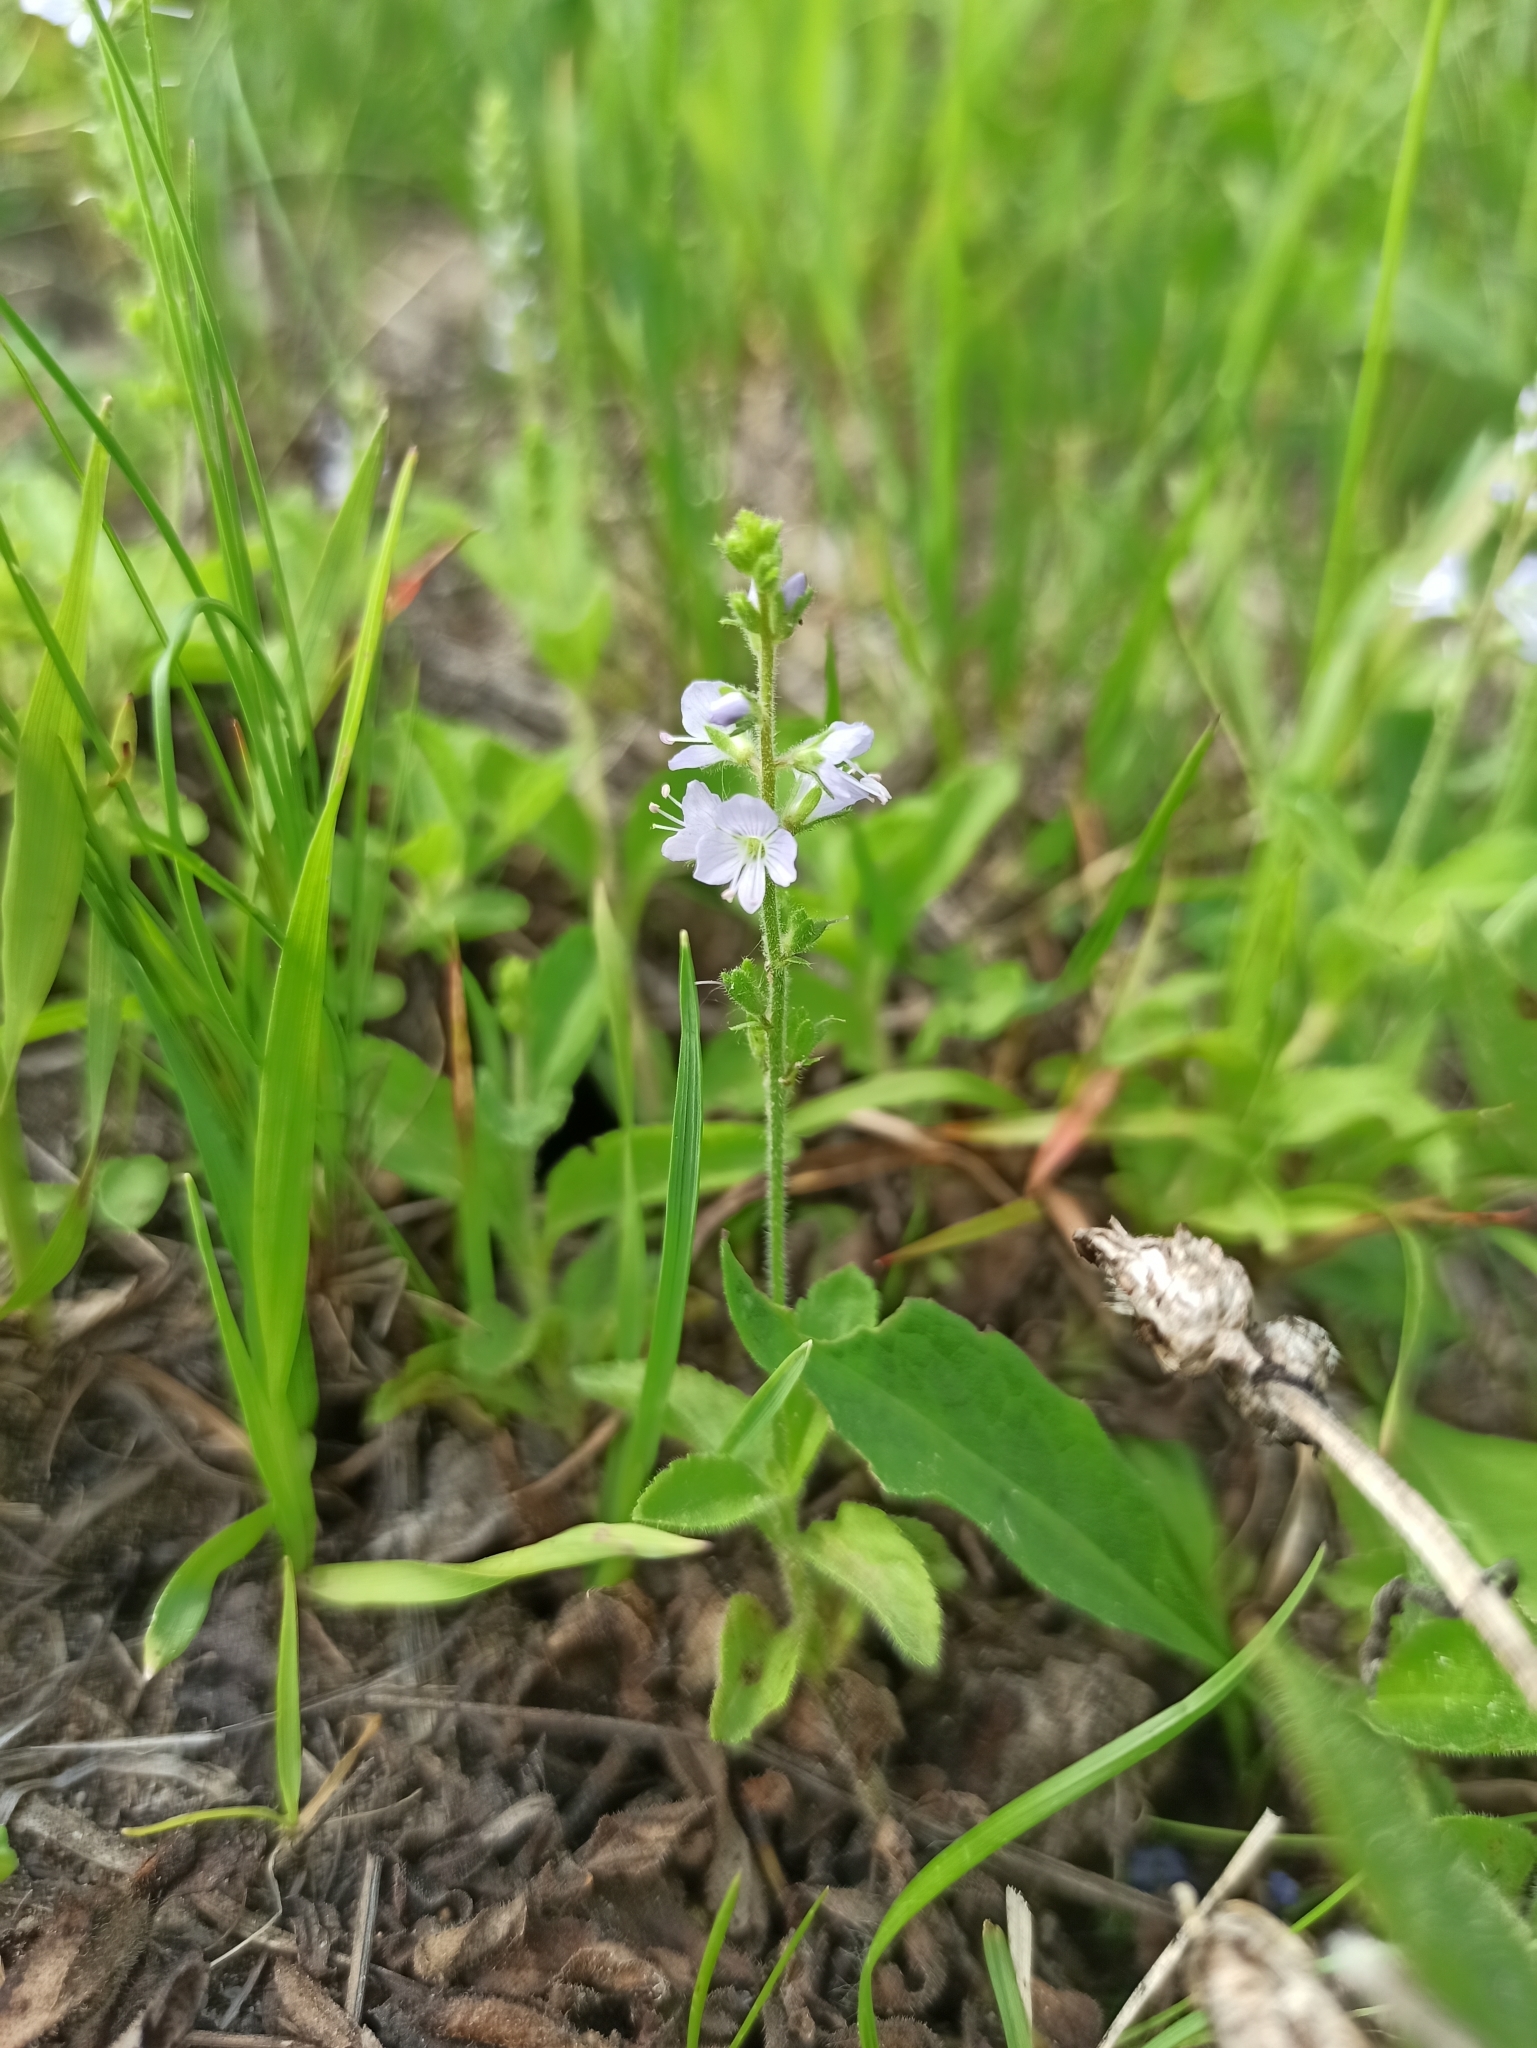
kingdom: Plantae
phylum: Tracheophyta
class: Magnoliopsida
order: Lamiales
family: Plantaginaceae
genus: Veronica
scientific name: Veronica officinalis
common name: Common speedwell
